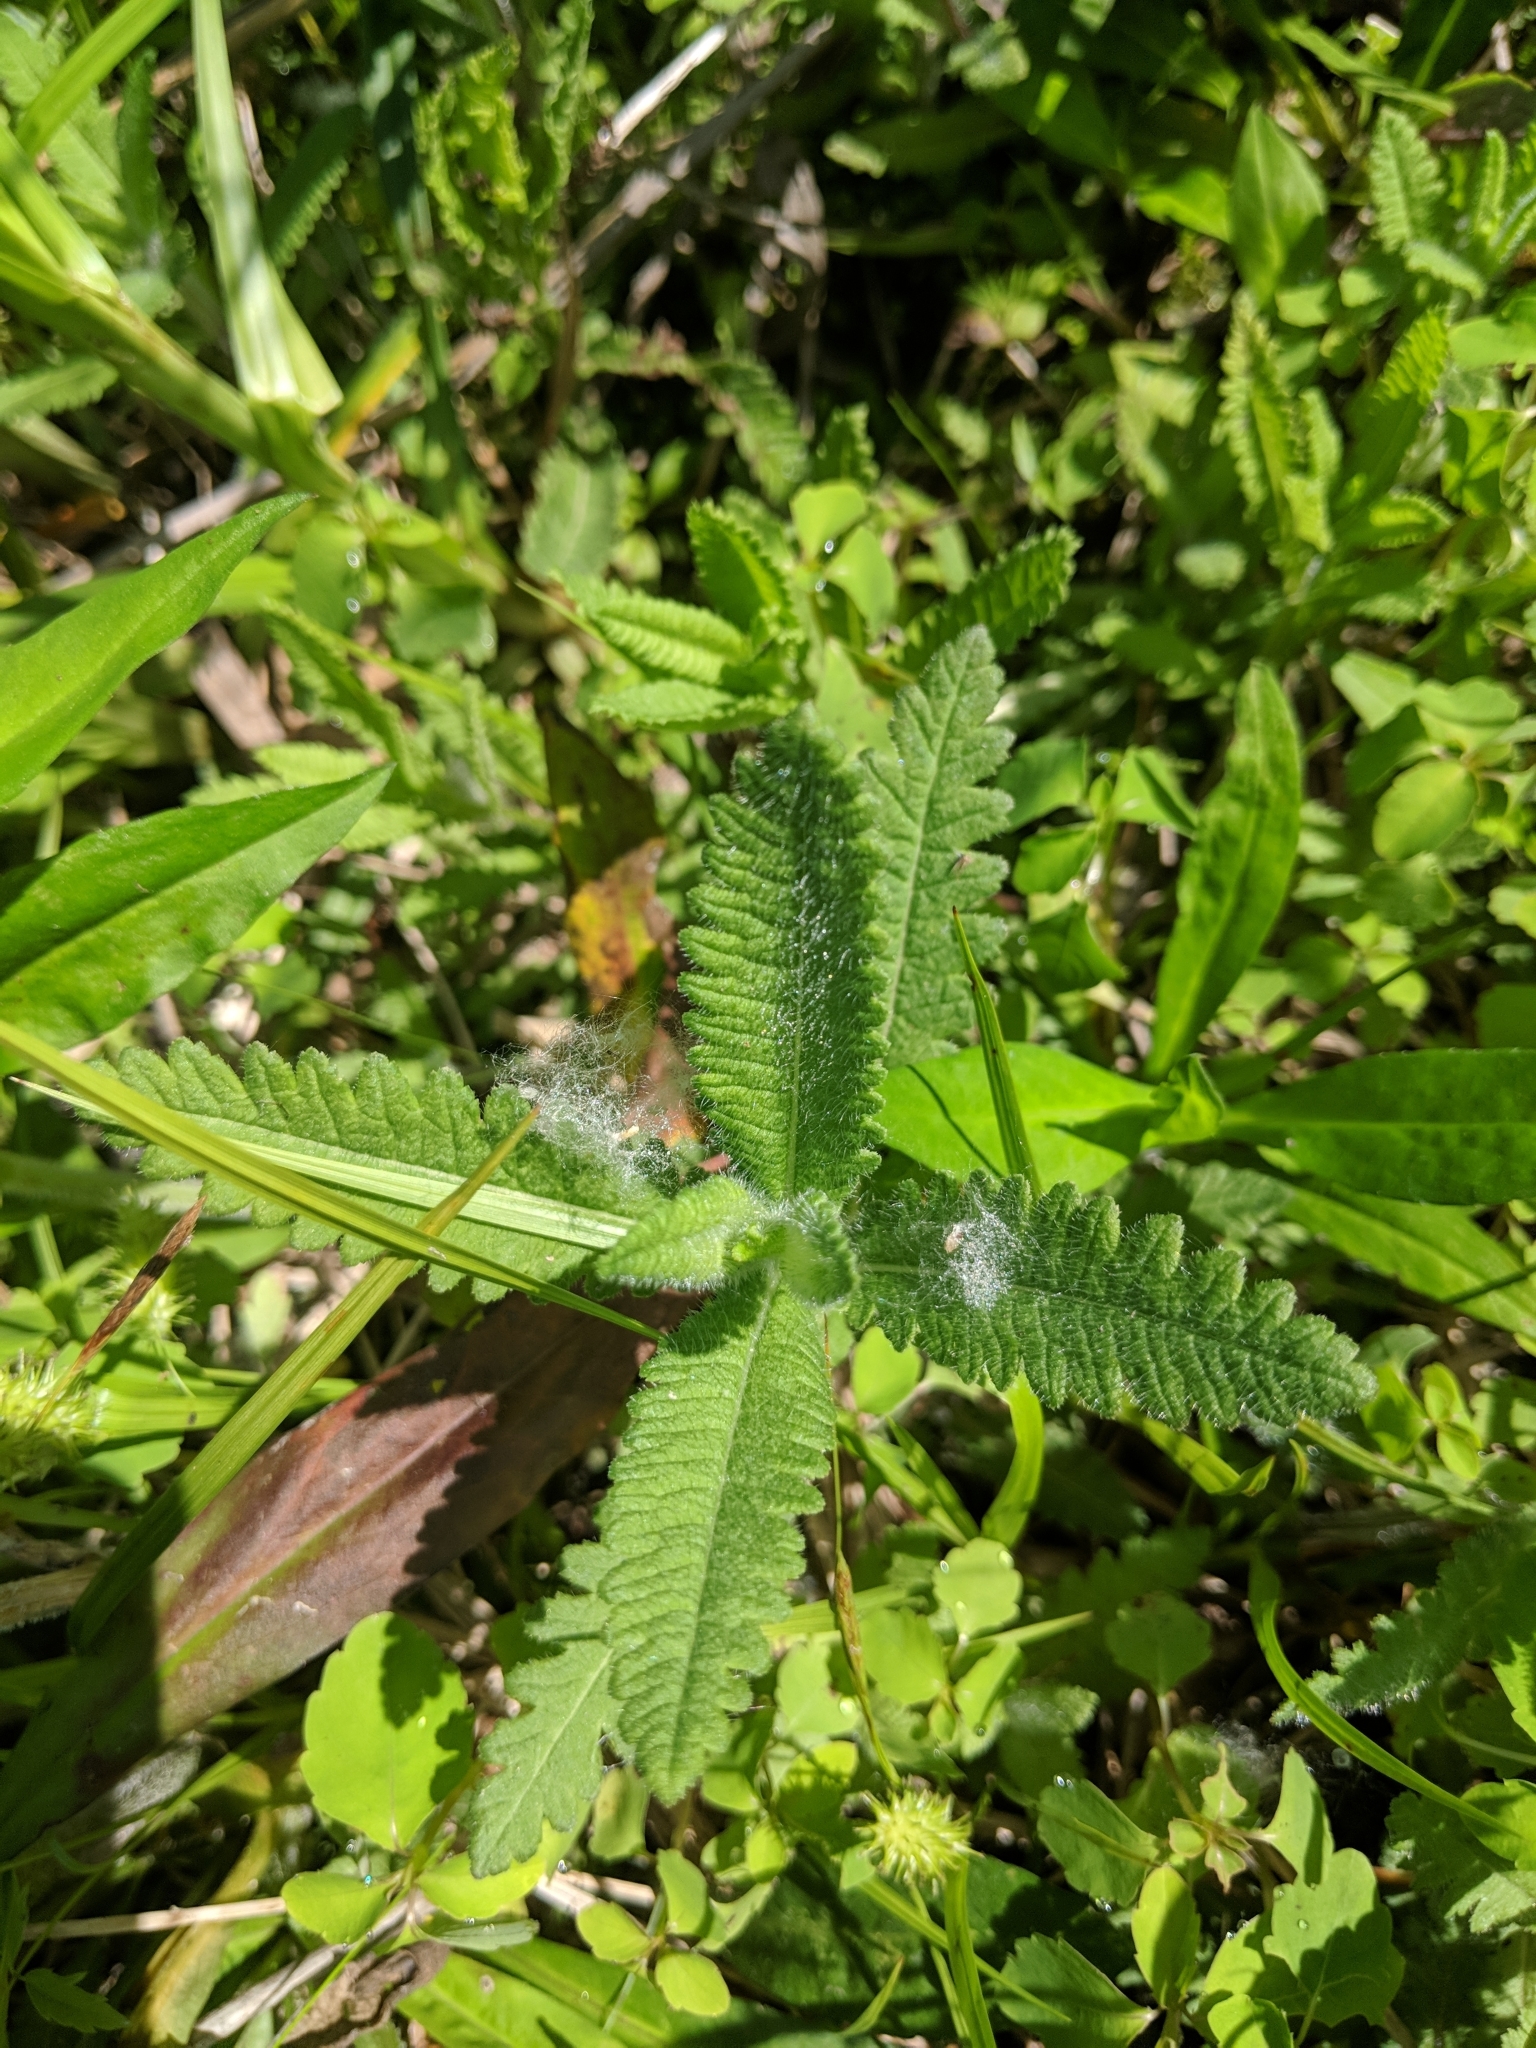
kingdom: Plantae
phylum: Tracheophyta
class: Magnoliopsida
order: Lamiales
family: Orobanchaceae
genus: Pedicularis
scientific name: Pedicularis lanceolata
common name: Swamp lousewort
